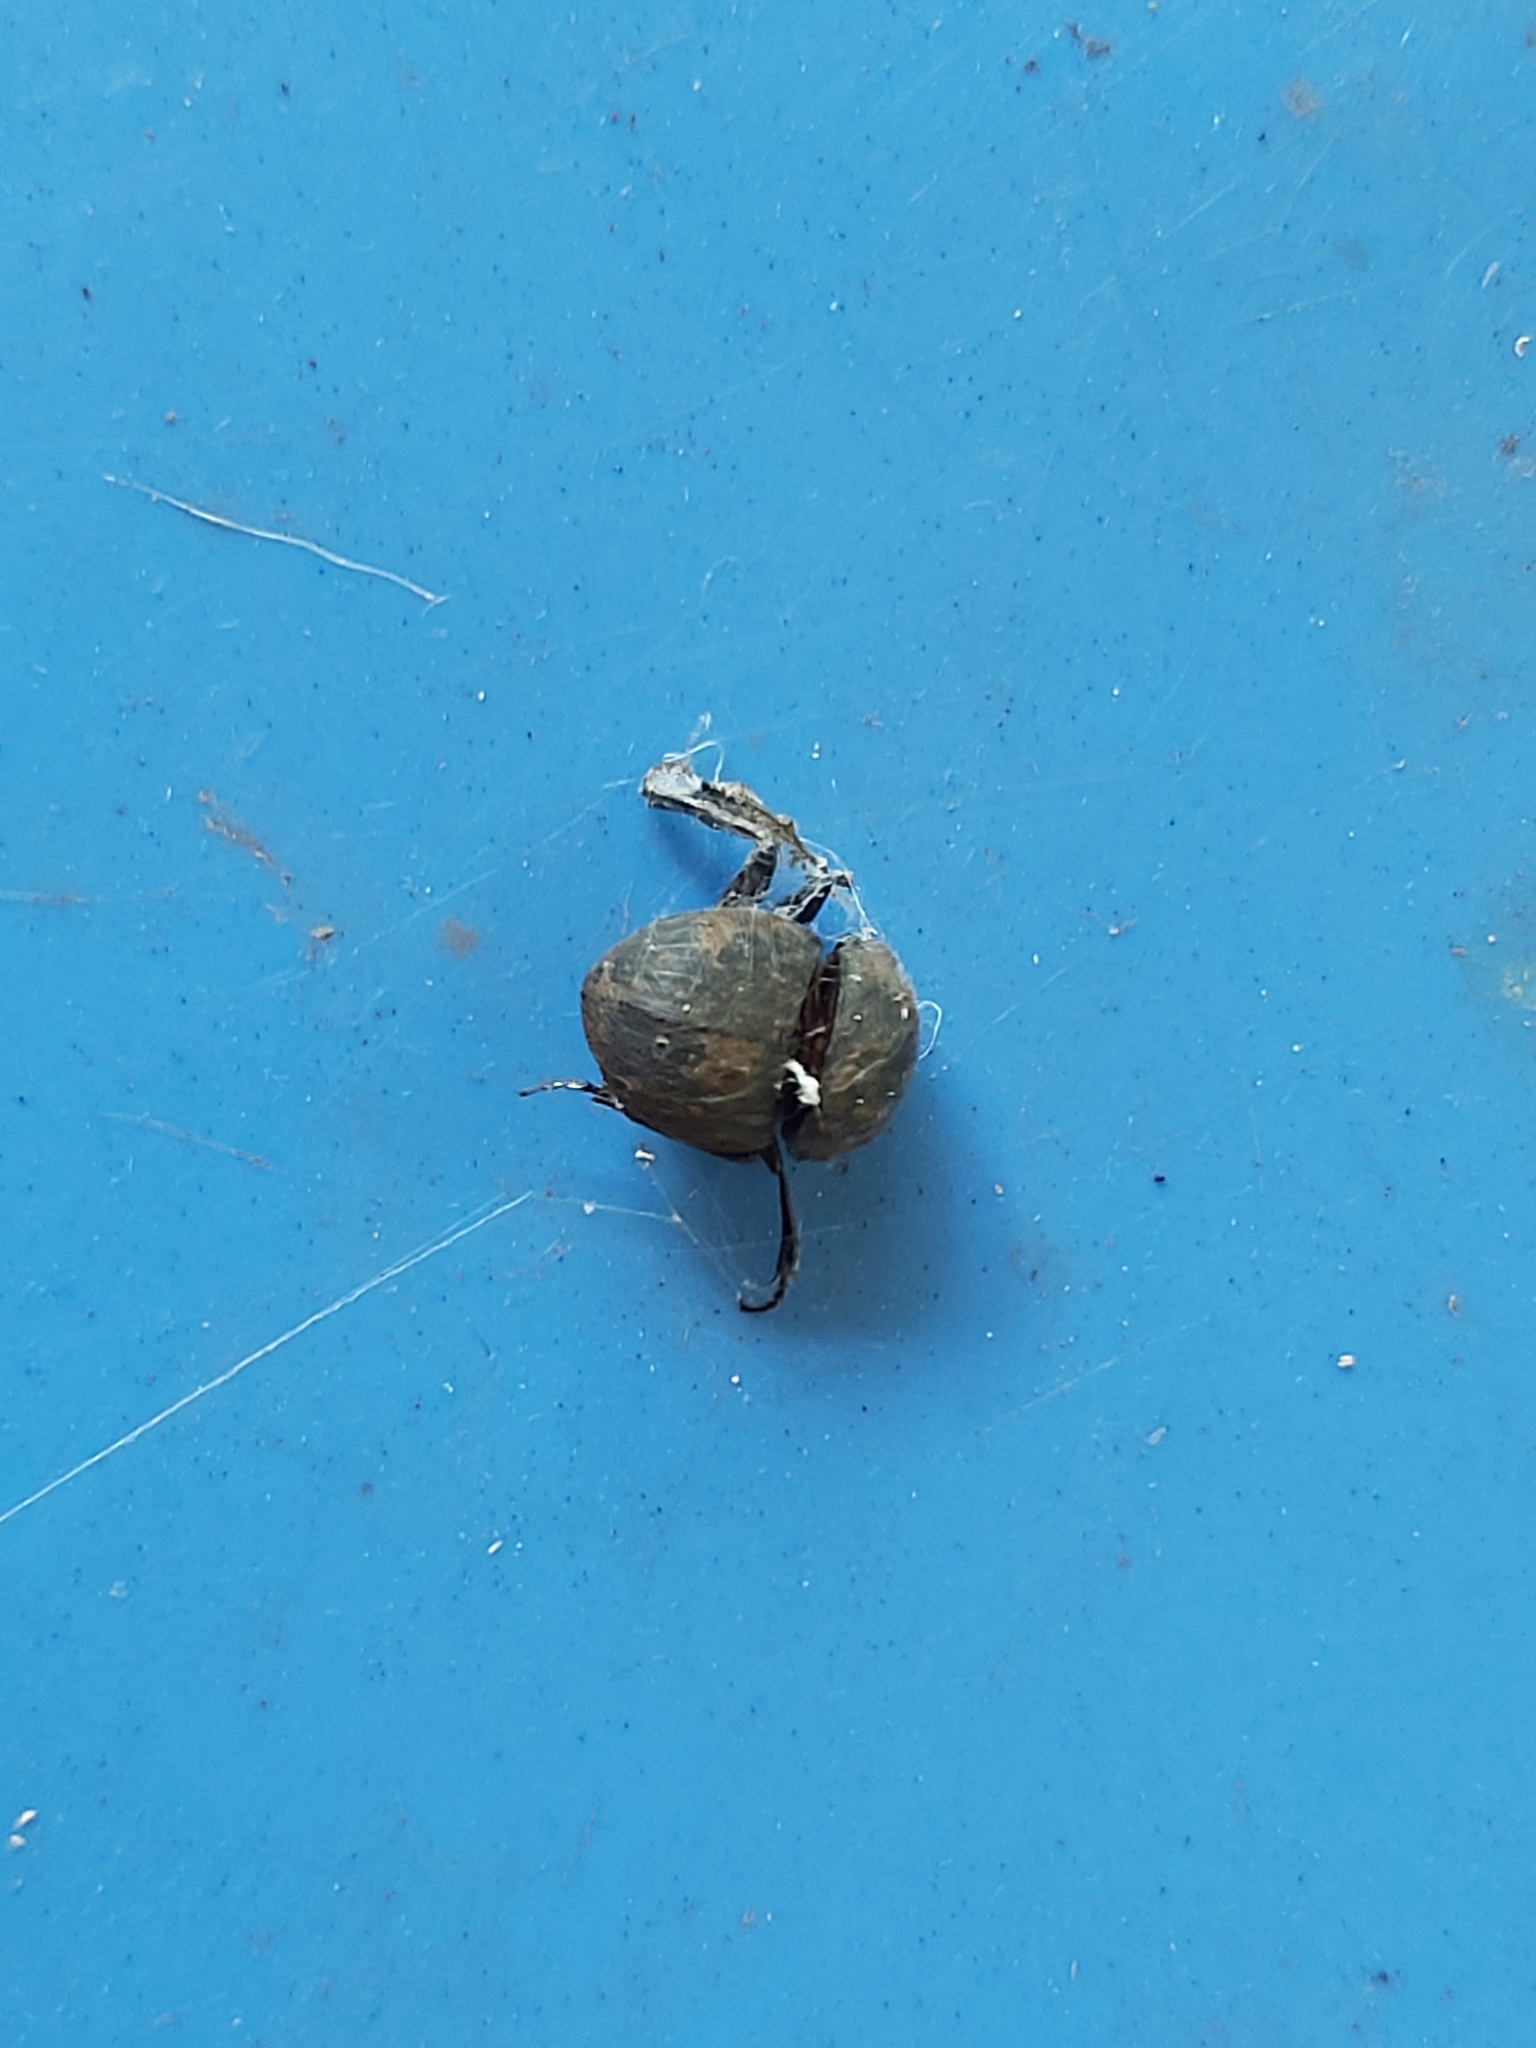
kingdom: Animalia
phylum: Arthropoda
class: Insecta
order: Coleoptera
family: Scarabaeidae
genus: Cephalodesmius
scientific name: Cephalodesmius armiger
